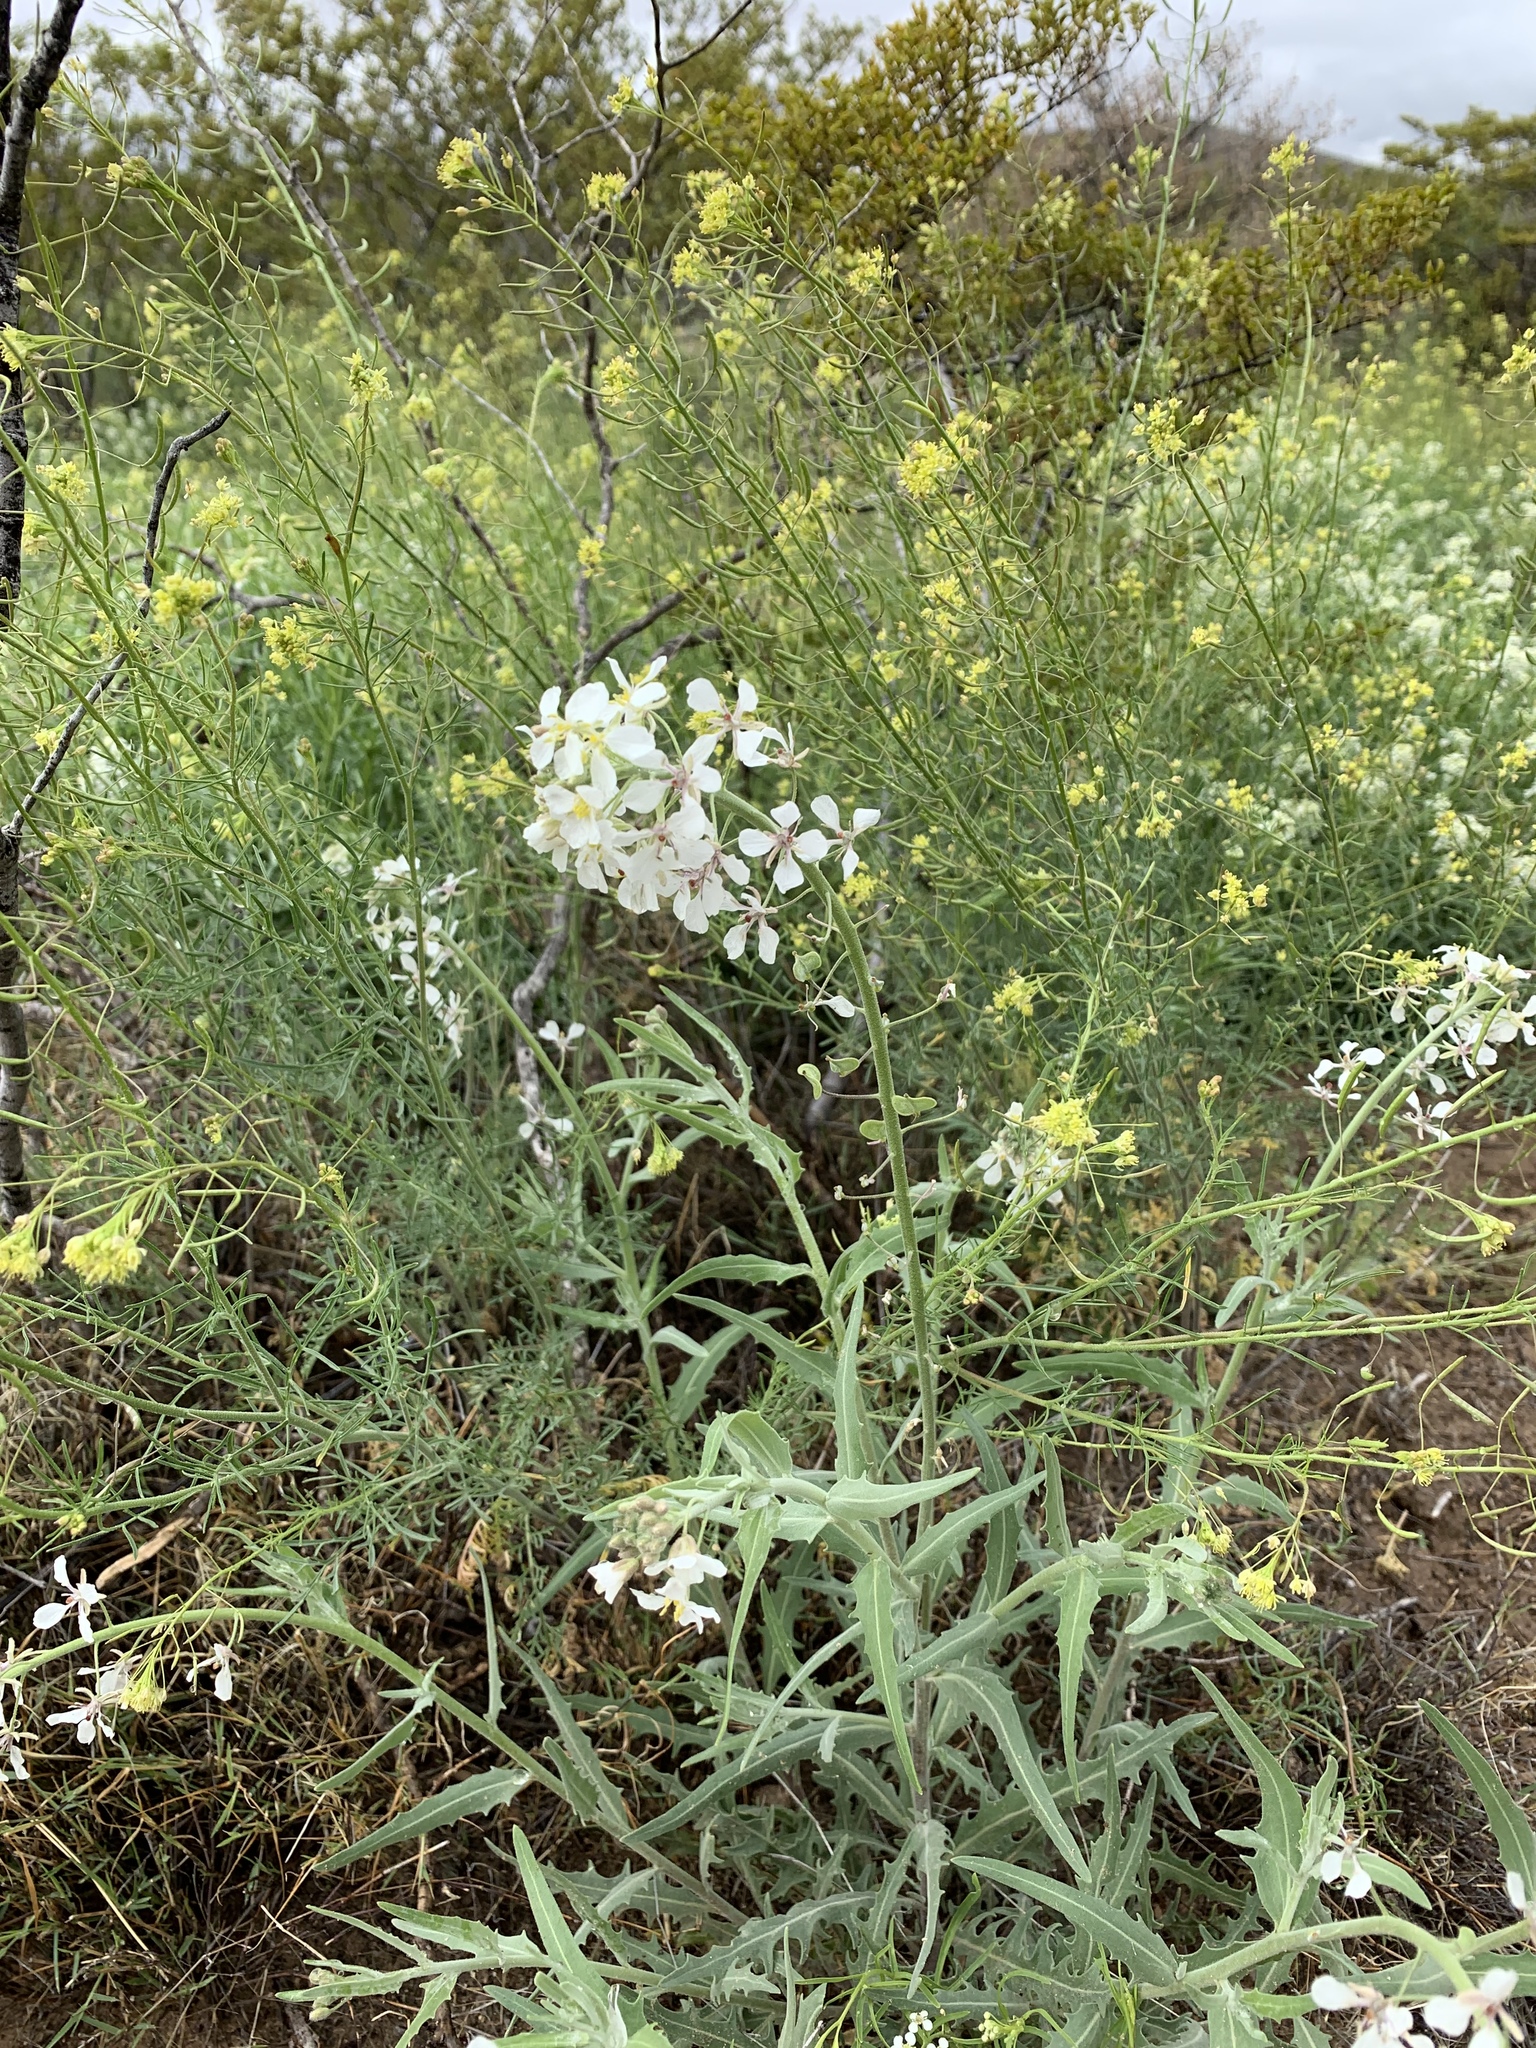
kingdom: Plantae
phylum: Tracheophyta
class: Magnoliopsida
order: Brassicales
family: Brassicaceae
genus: Dimorphocarpa
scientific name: Dimorphocarpa wislizenii
